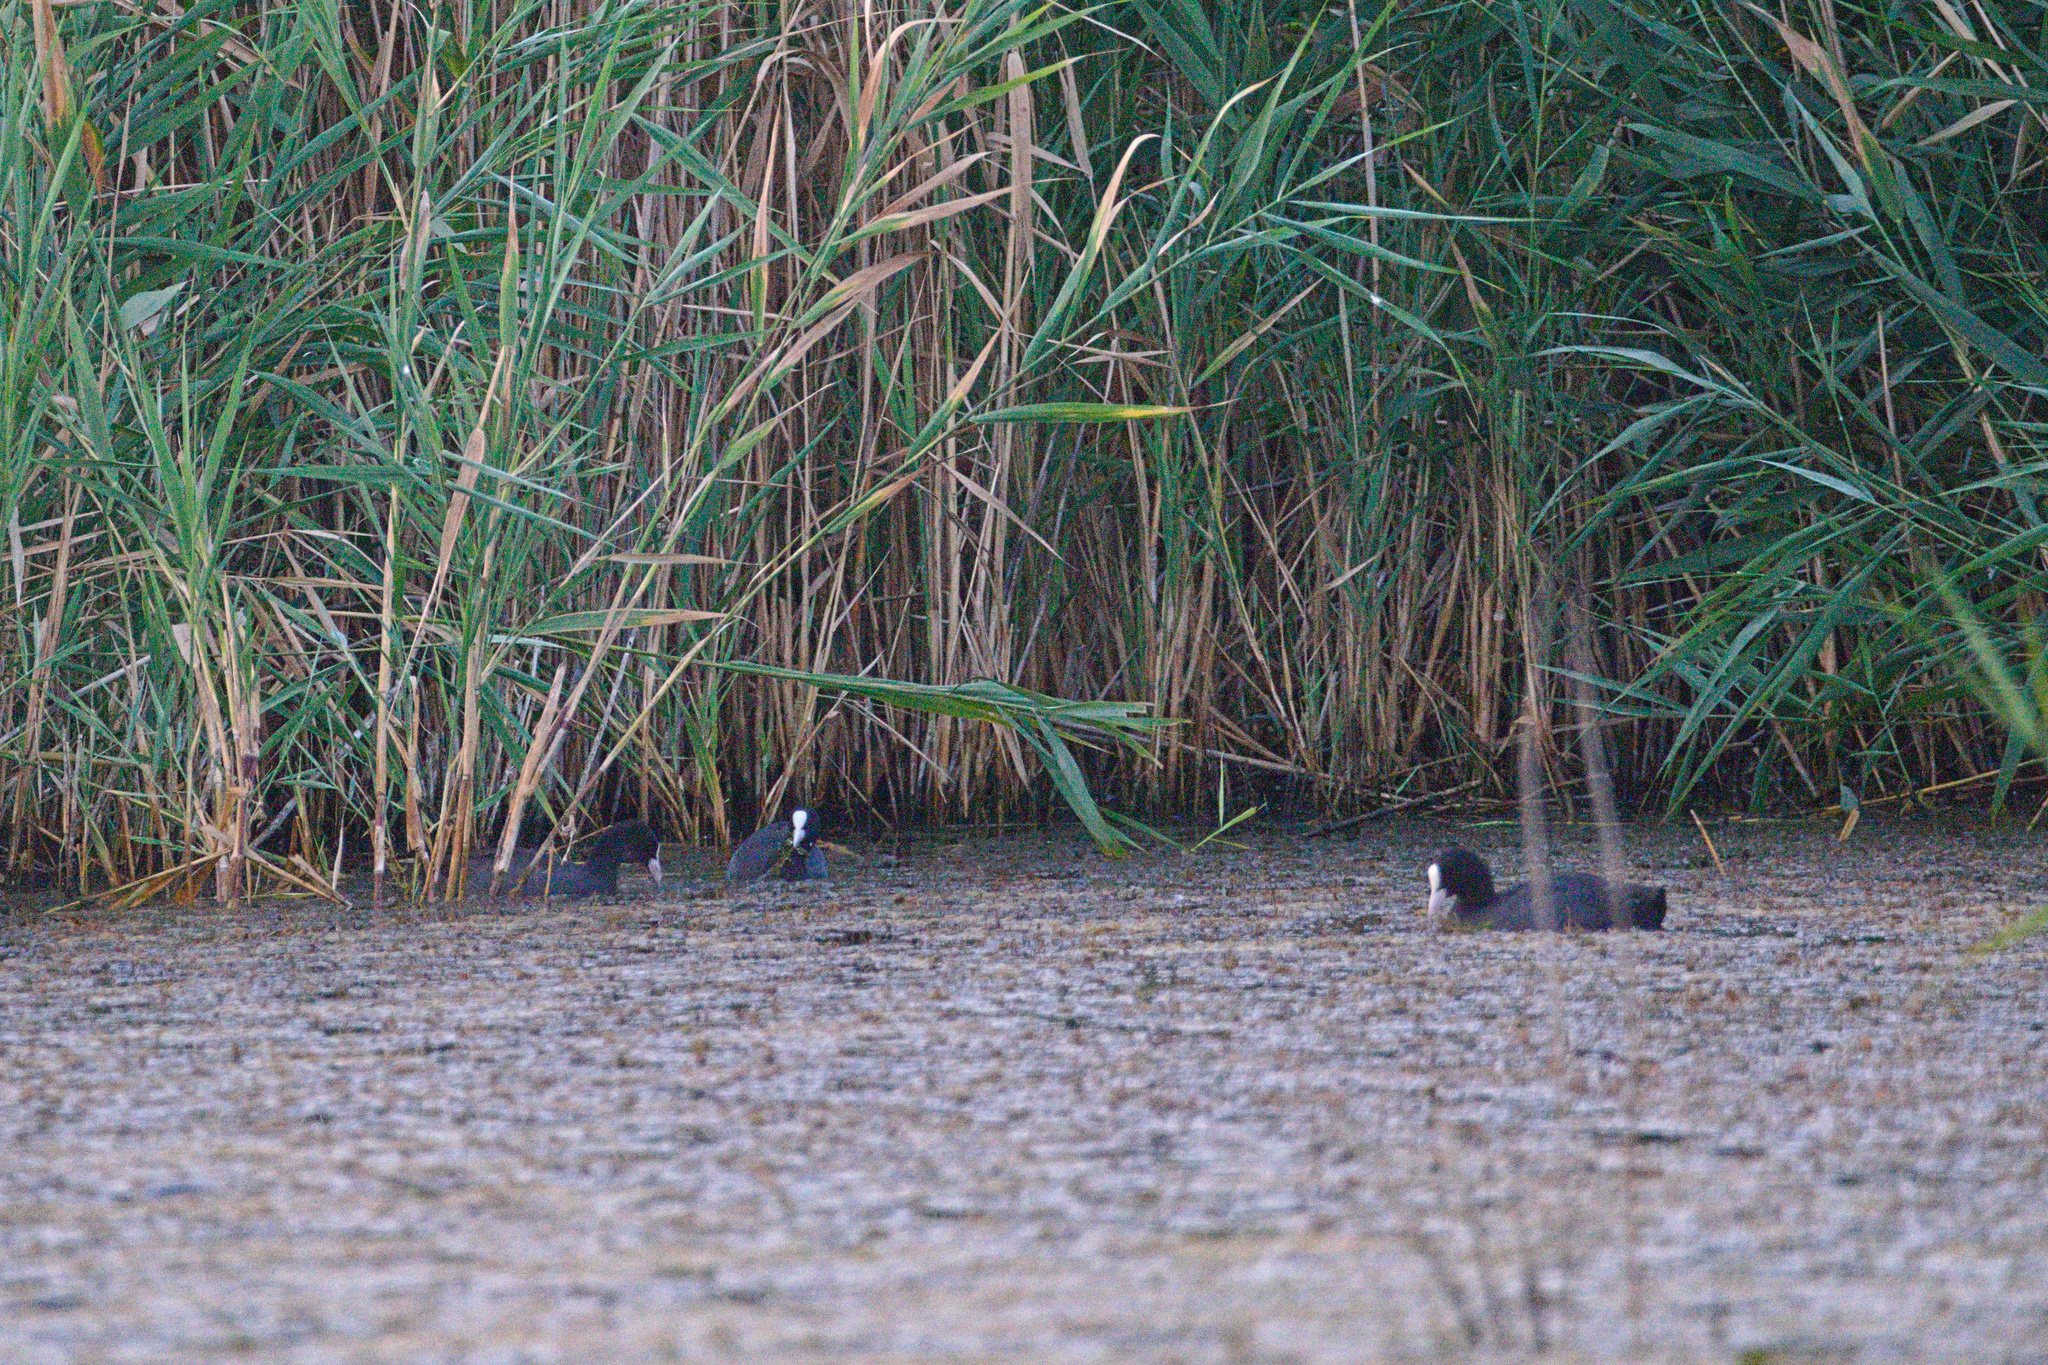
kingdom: Animalia
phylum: Chordata
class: Aves
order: Gruiformes
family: Rallidae
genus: Fulica
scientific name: Fulica atra
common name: Eurasian coot
